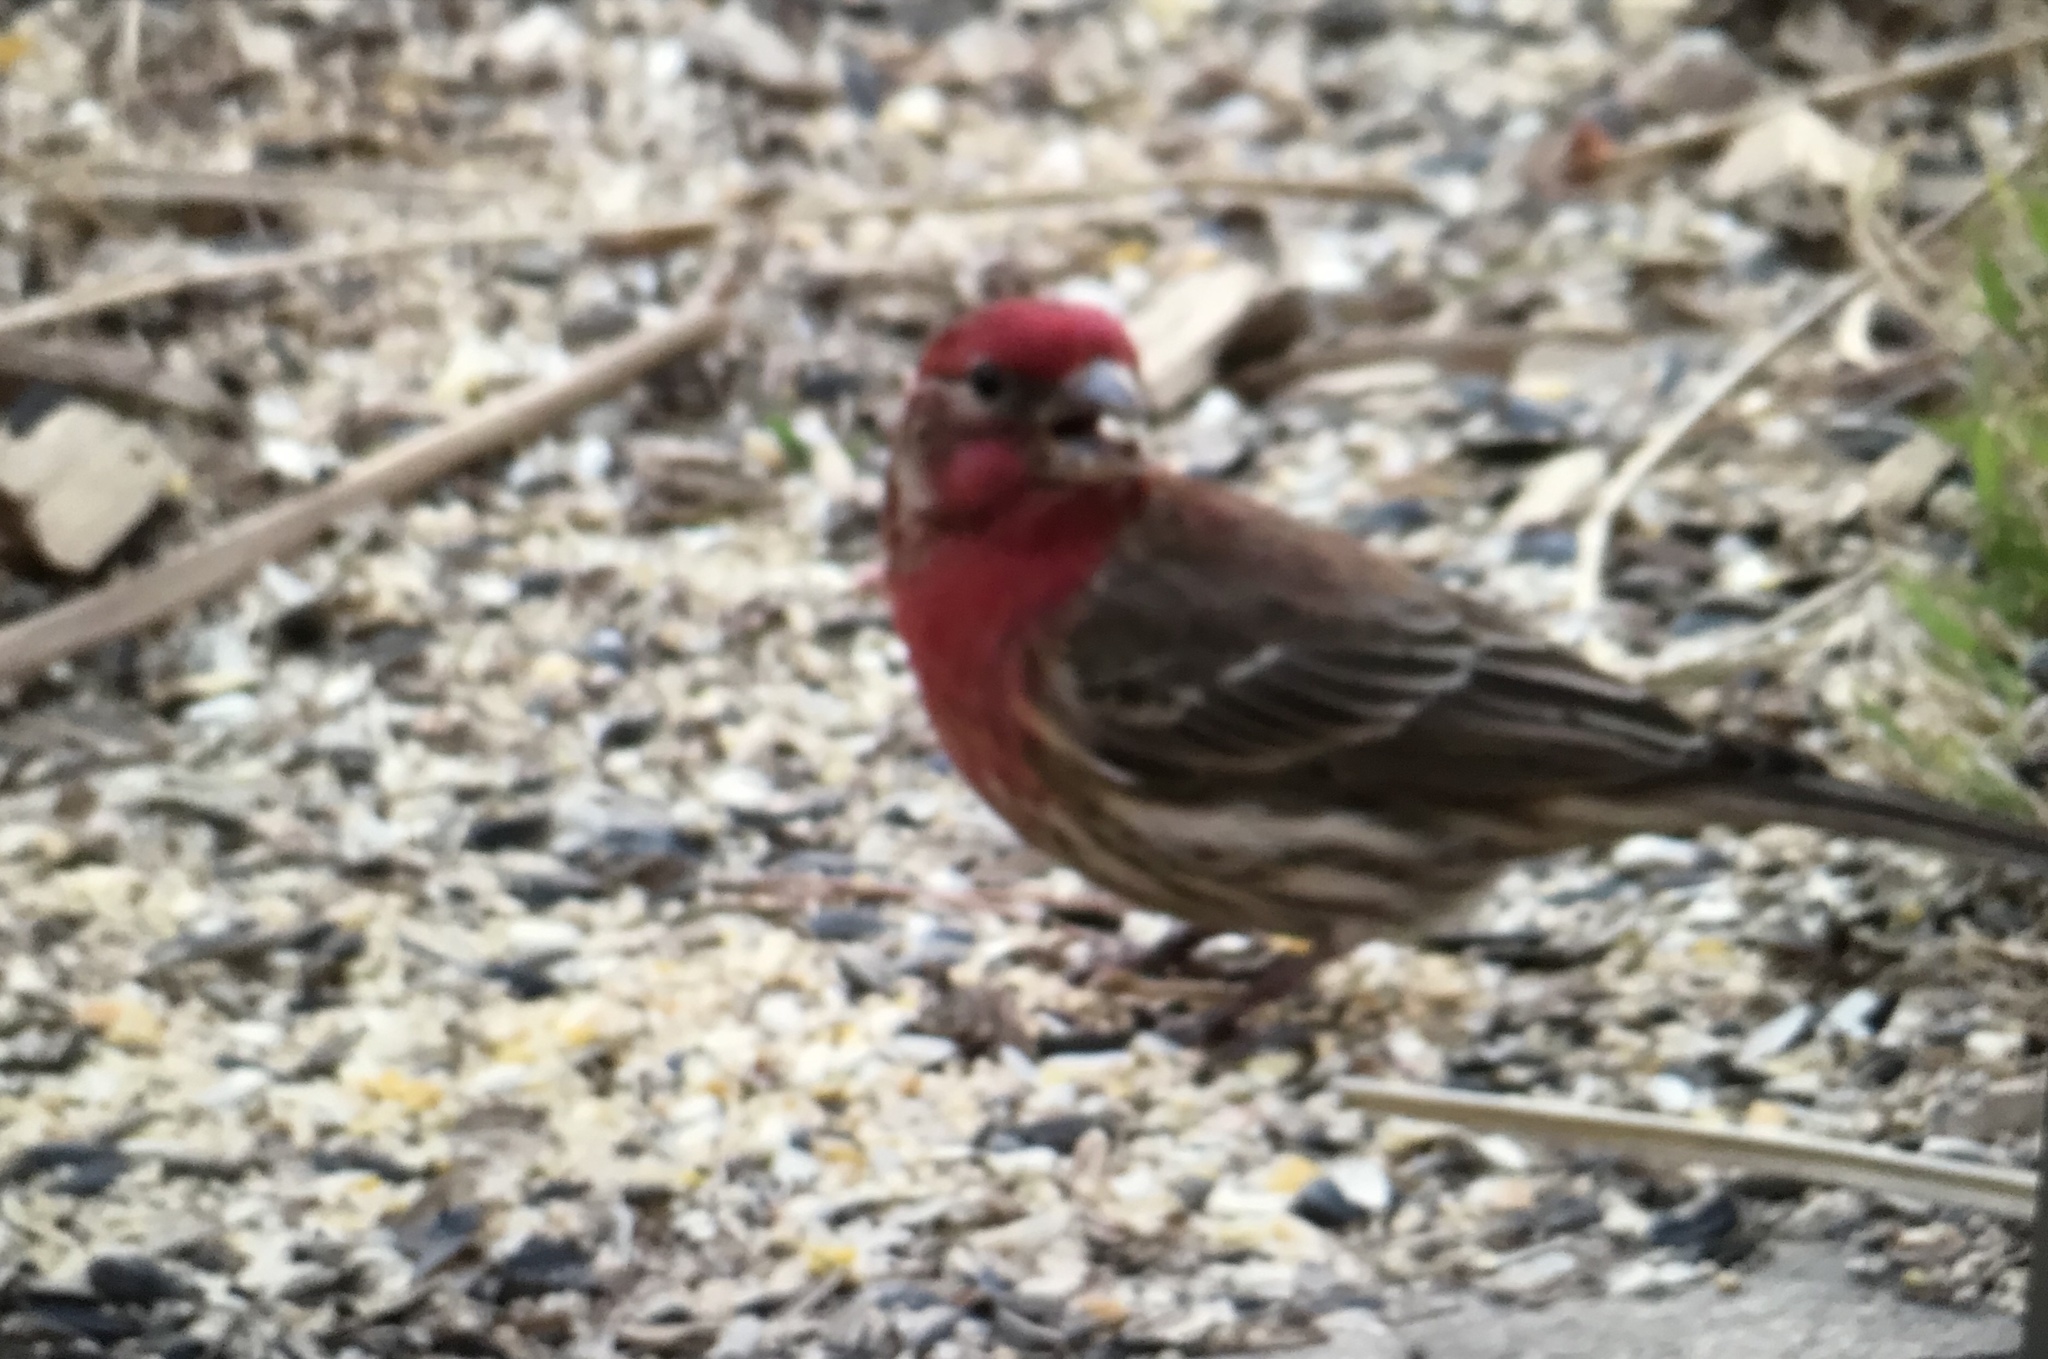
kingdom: Animalia
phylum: Chordata
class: Aves
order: Passeriformes
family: Fringillidae
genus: Haemorhous
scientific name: Haemorhous mexicanus
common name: House finch
